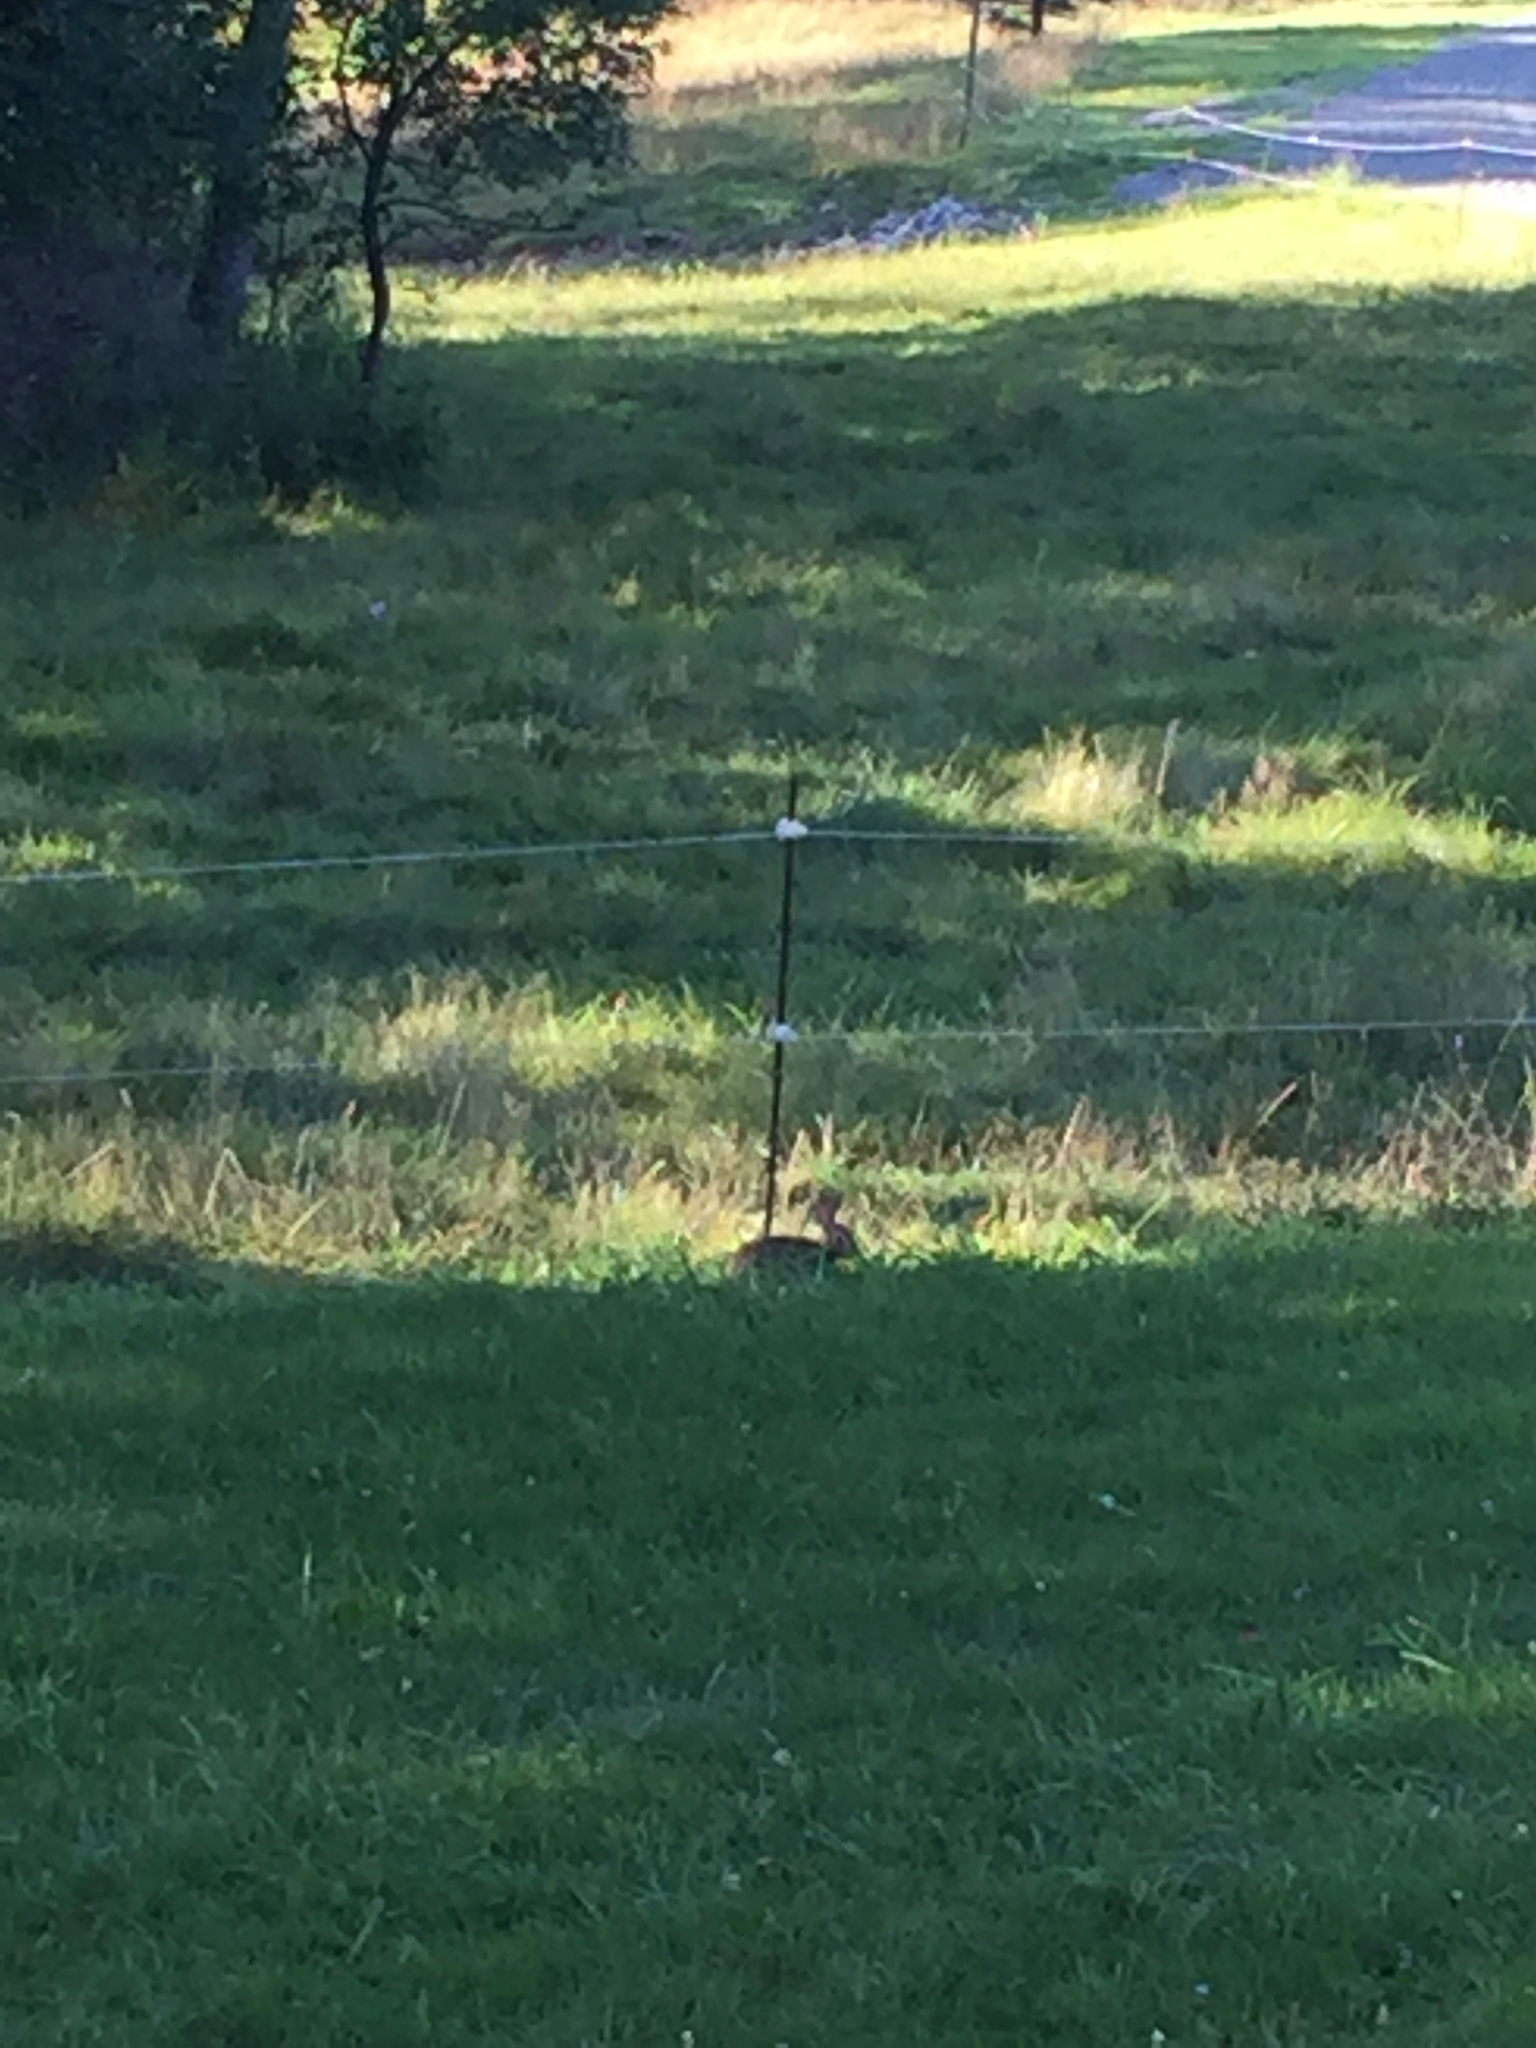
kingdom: Animalia
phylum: Chordata
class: Mammalia
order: Lagomorpha
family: Leporidae
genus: Sylvilagus
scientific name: Sylvilagus floridanus
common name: Eastern cottontail
